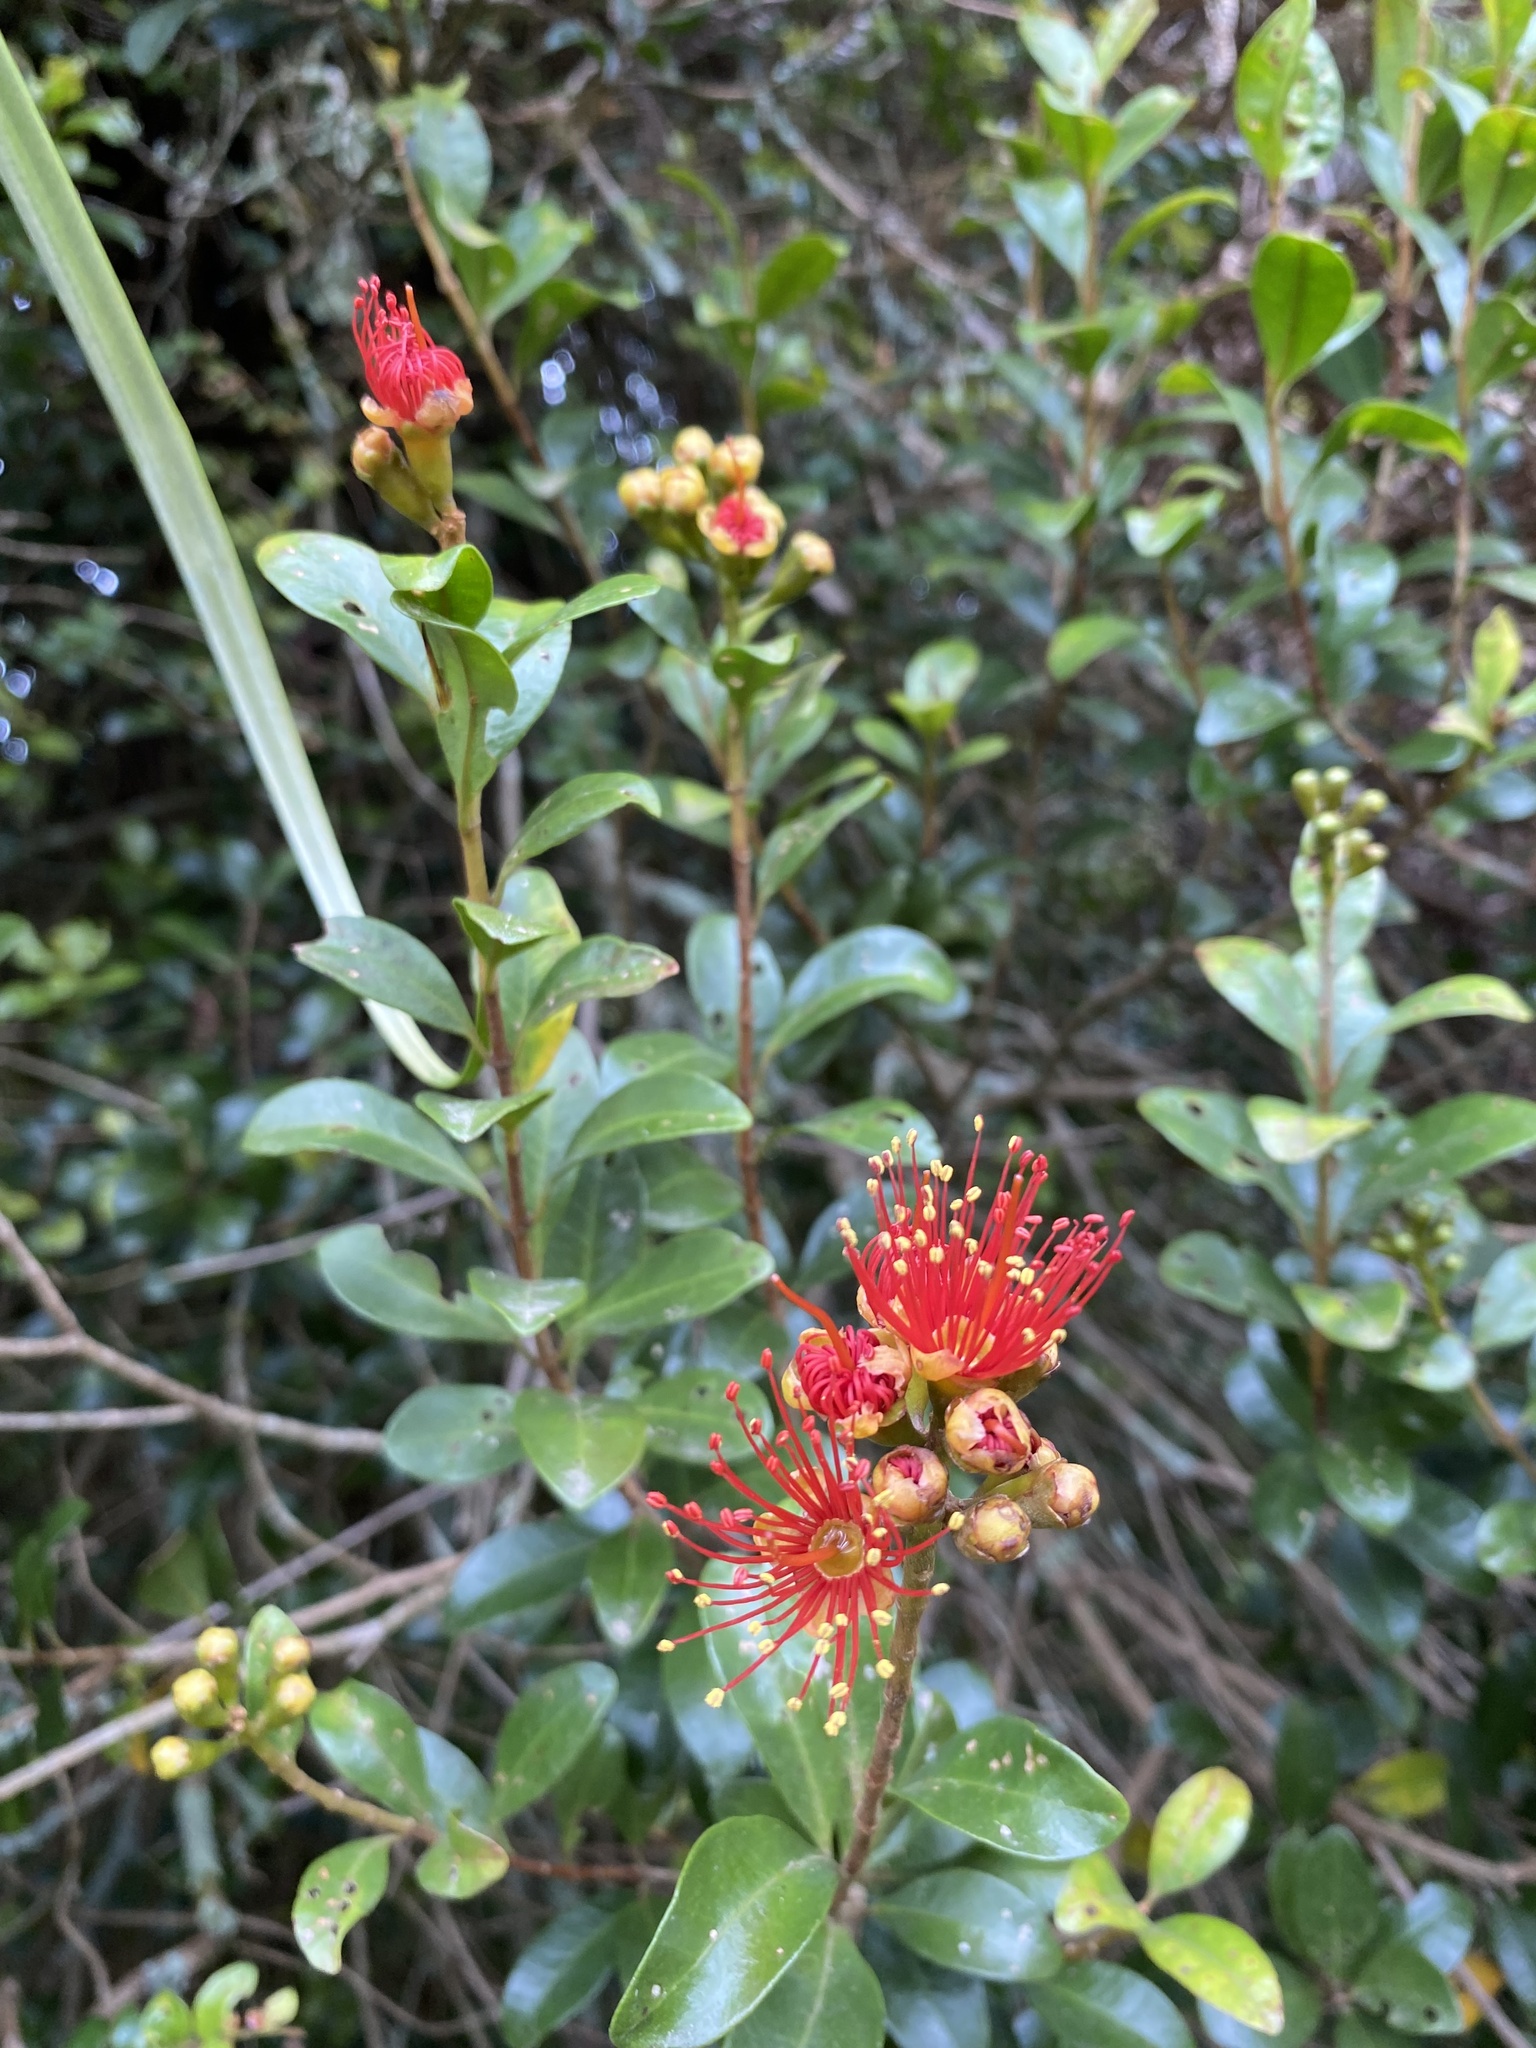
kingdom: Plantae
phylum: Tracheophyta
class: Magnoliopsida
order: Myrtales
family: Myrtaceae
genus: Metrosideros
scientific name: Metrosideros fulgens
